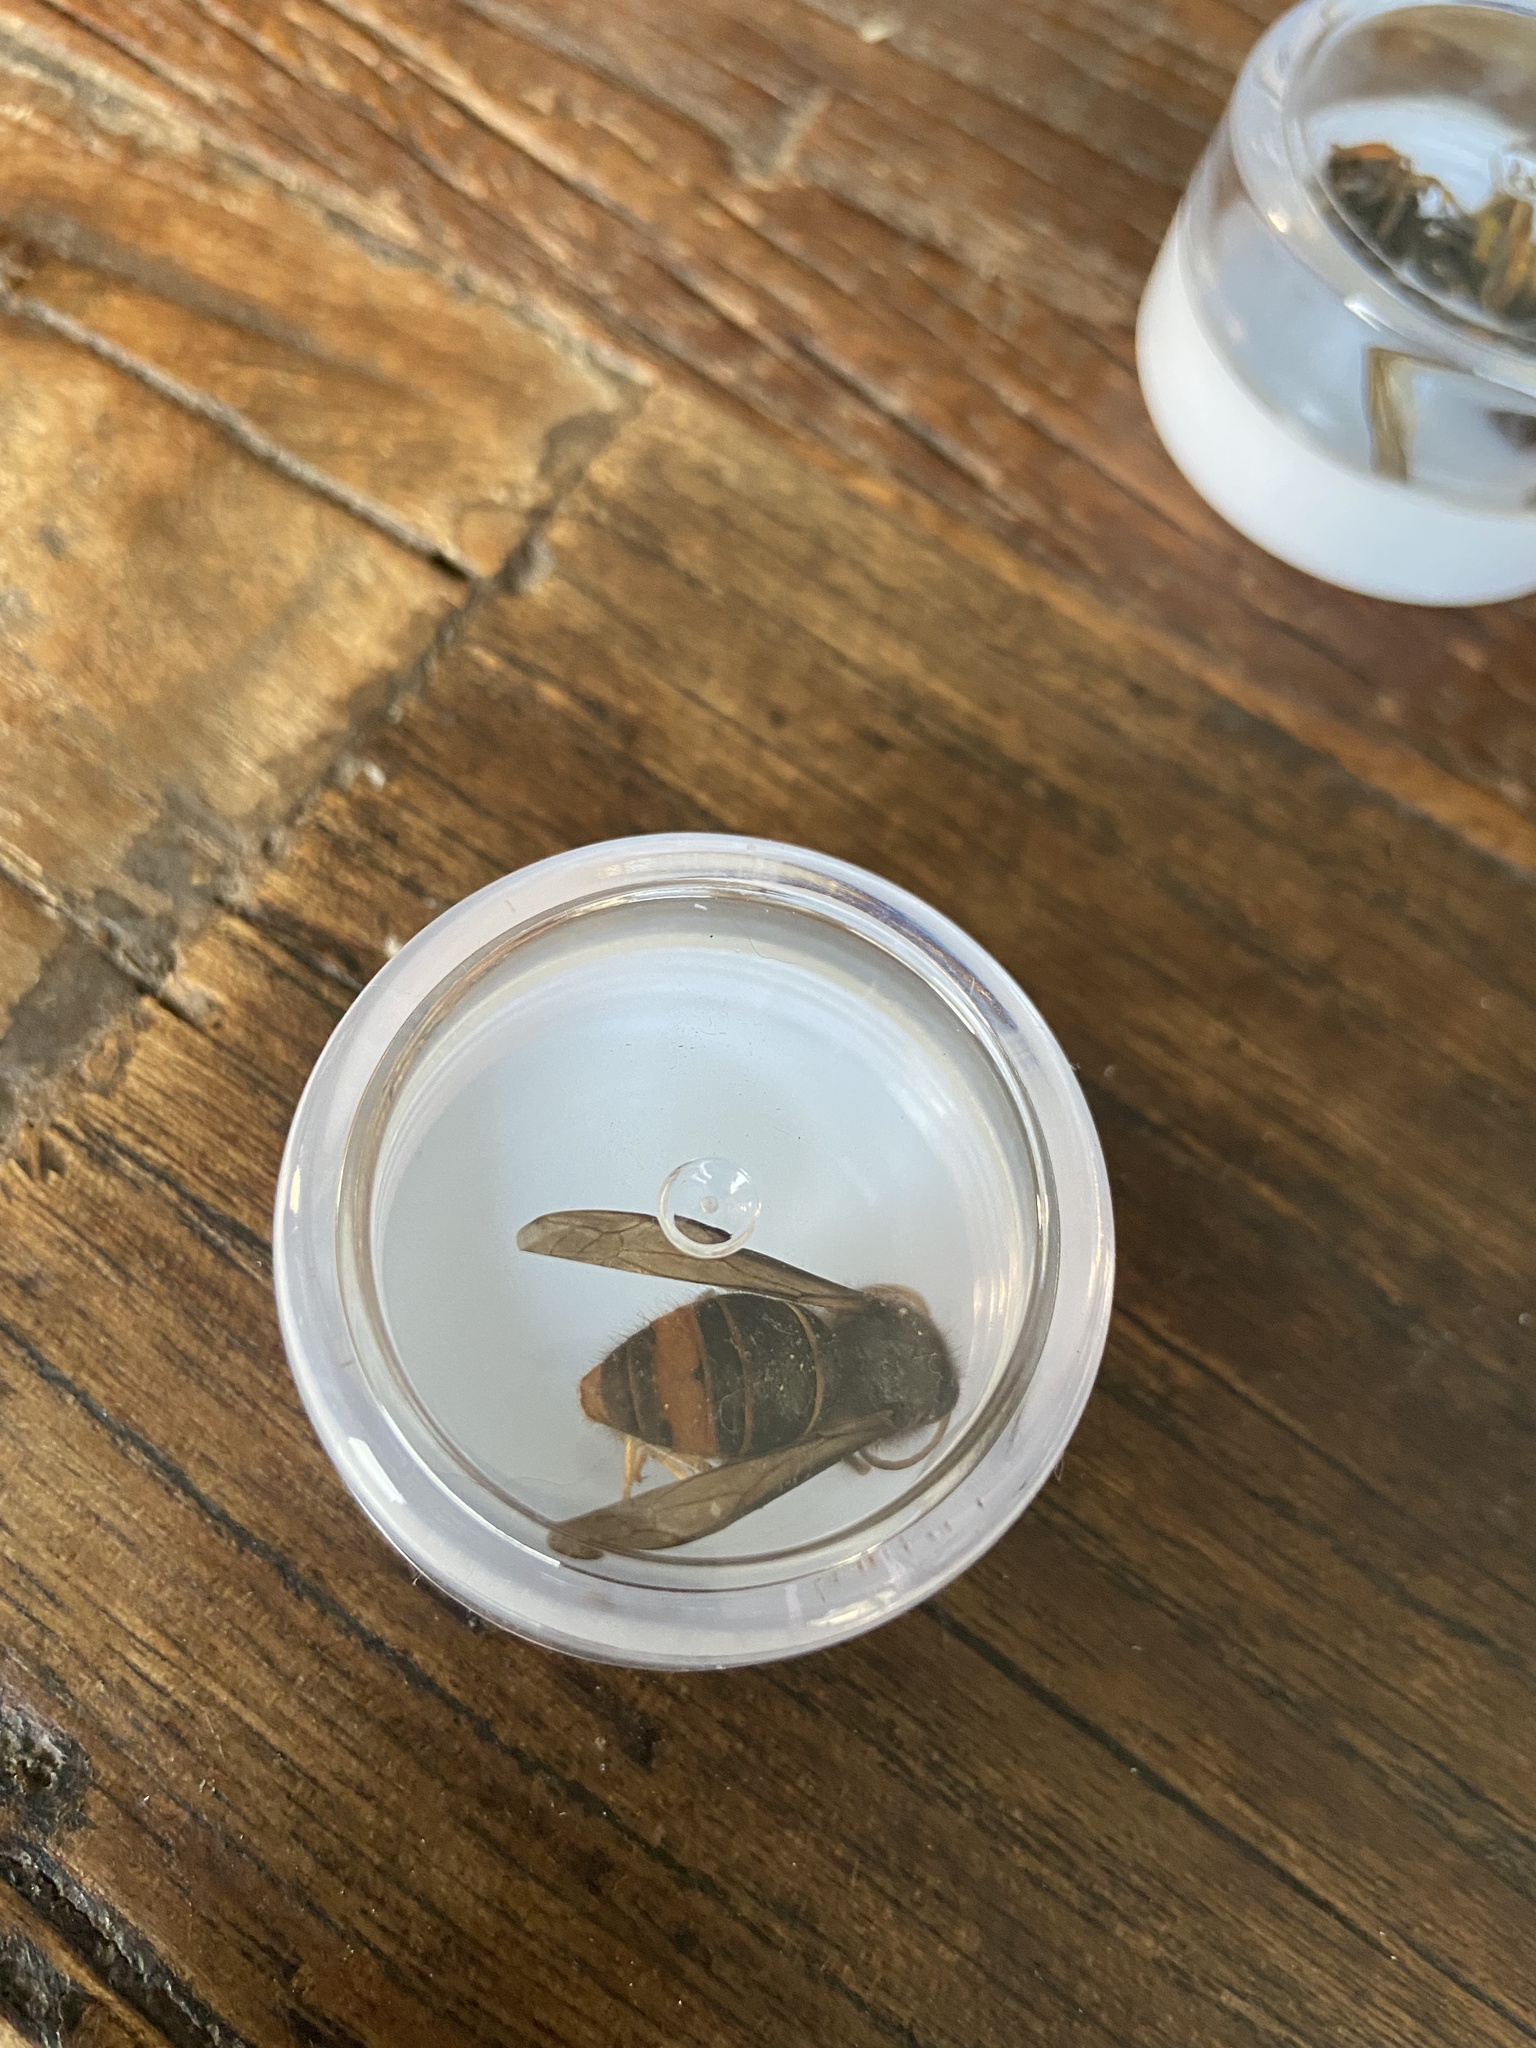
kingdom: Animalia
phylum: Arthropoda
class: Insecta
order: Hymenoptera
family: Vespidae
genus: Vespa
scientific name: Vespa velutina
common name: Asian hornet
